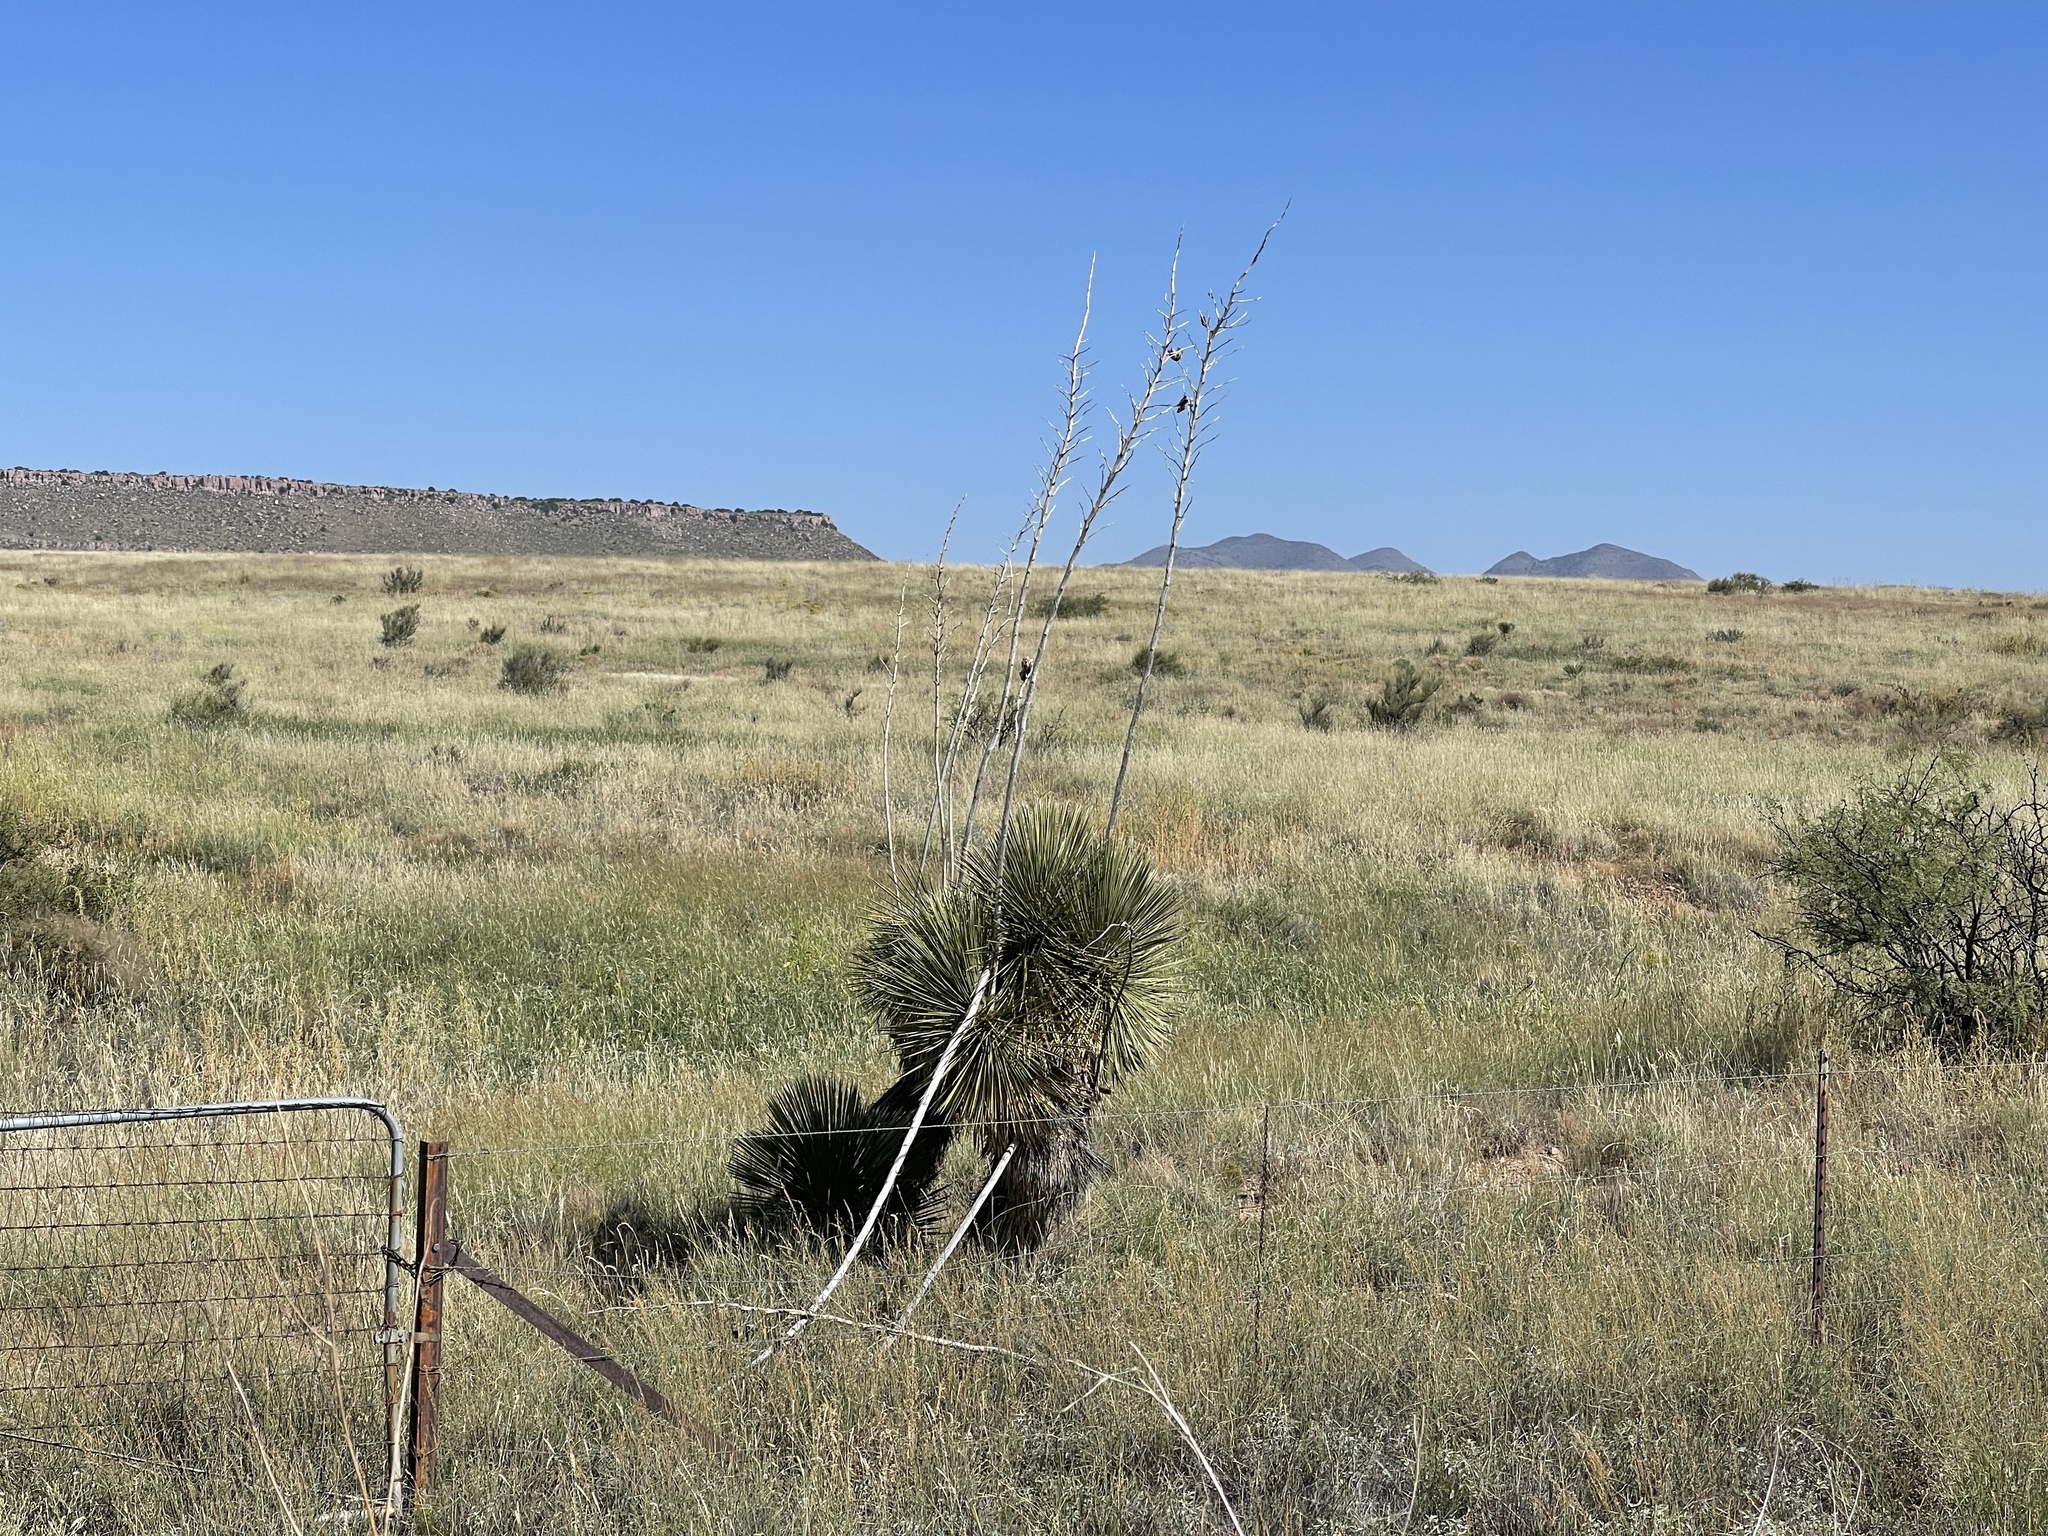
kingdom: Plantae
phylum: Tracheophyta
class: Liliopsida
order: Asparagales
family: Asparagaceae
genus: Yucca
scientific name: Yucca elata
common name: Palmella
